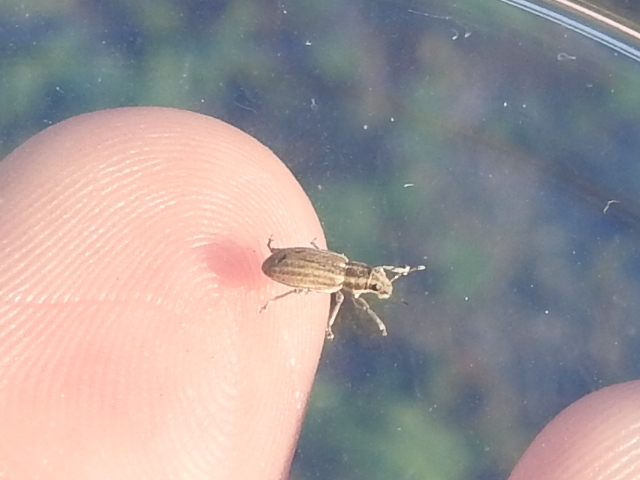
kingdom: Animalia
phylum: Arthropoda
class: Insecta
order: Coleoptera
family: Curculionidae
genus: Sitona
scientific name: Sitona lineatus
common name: Weevil
